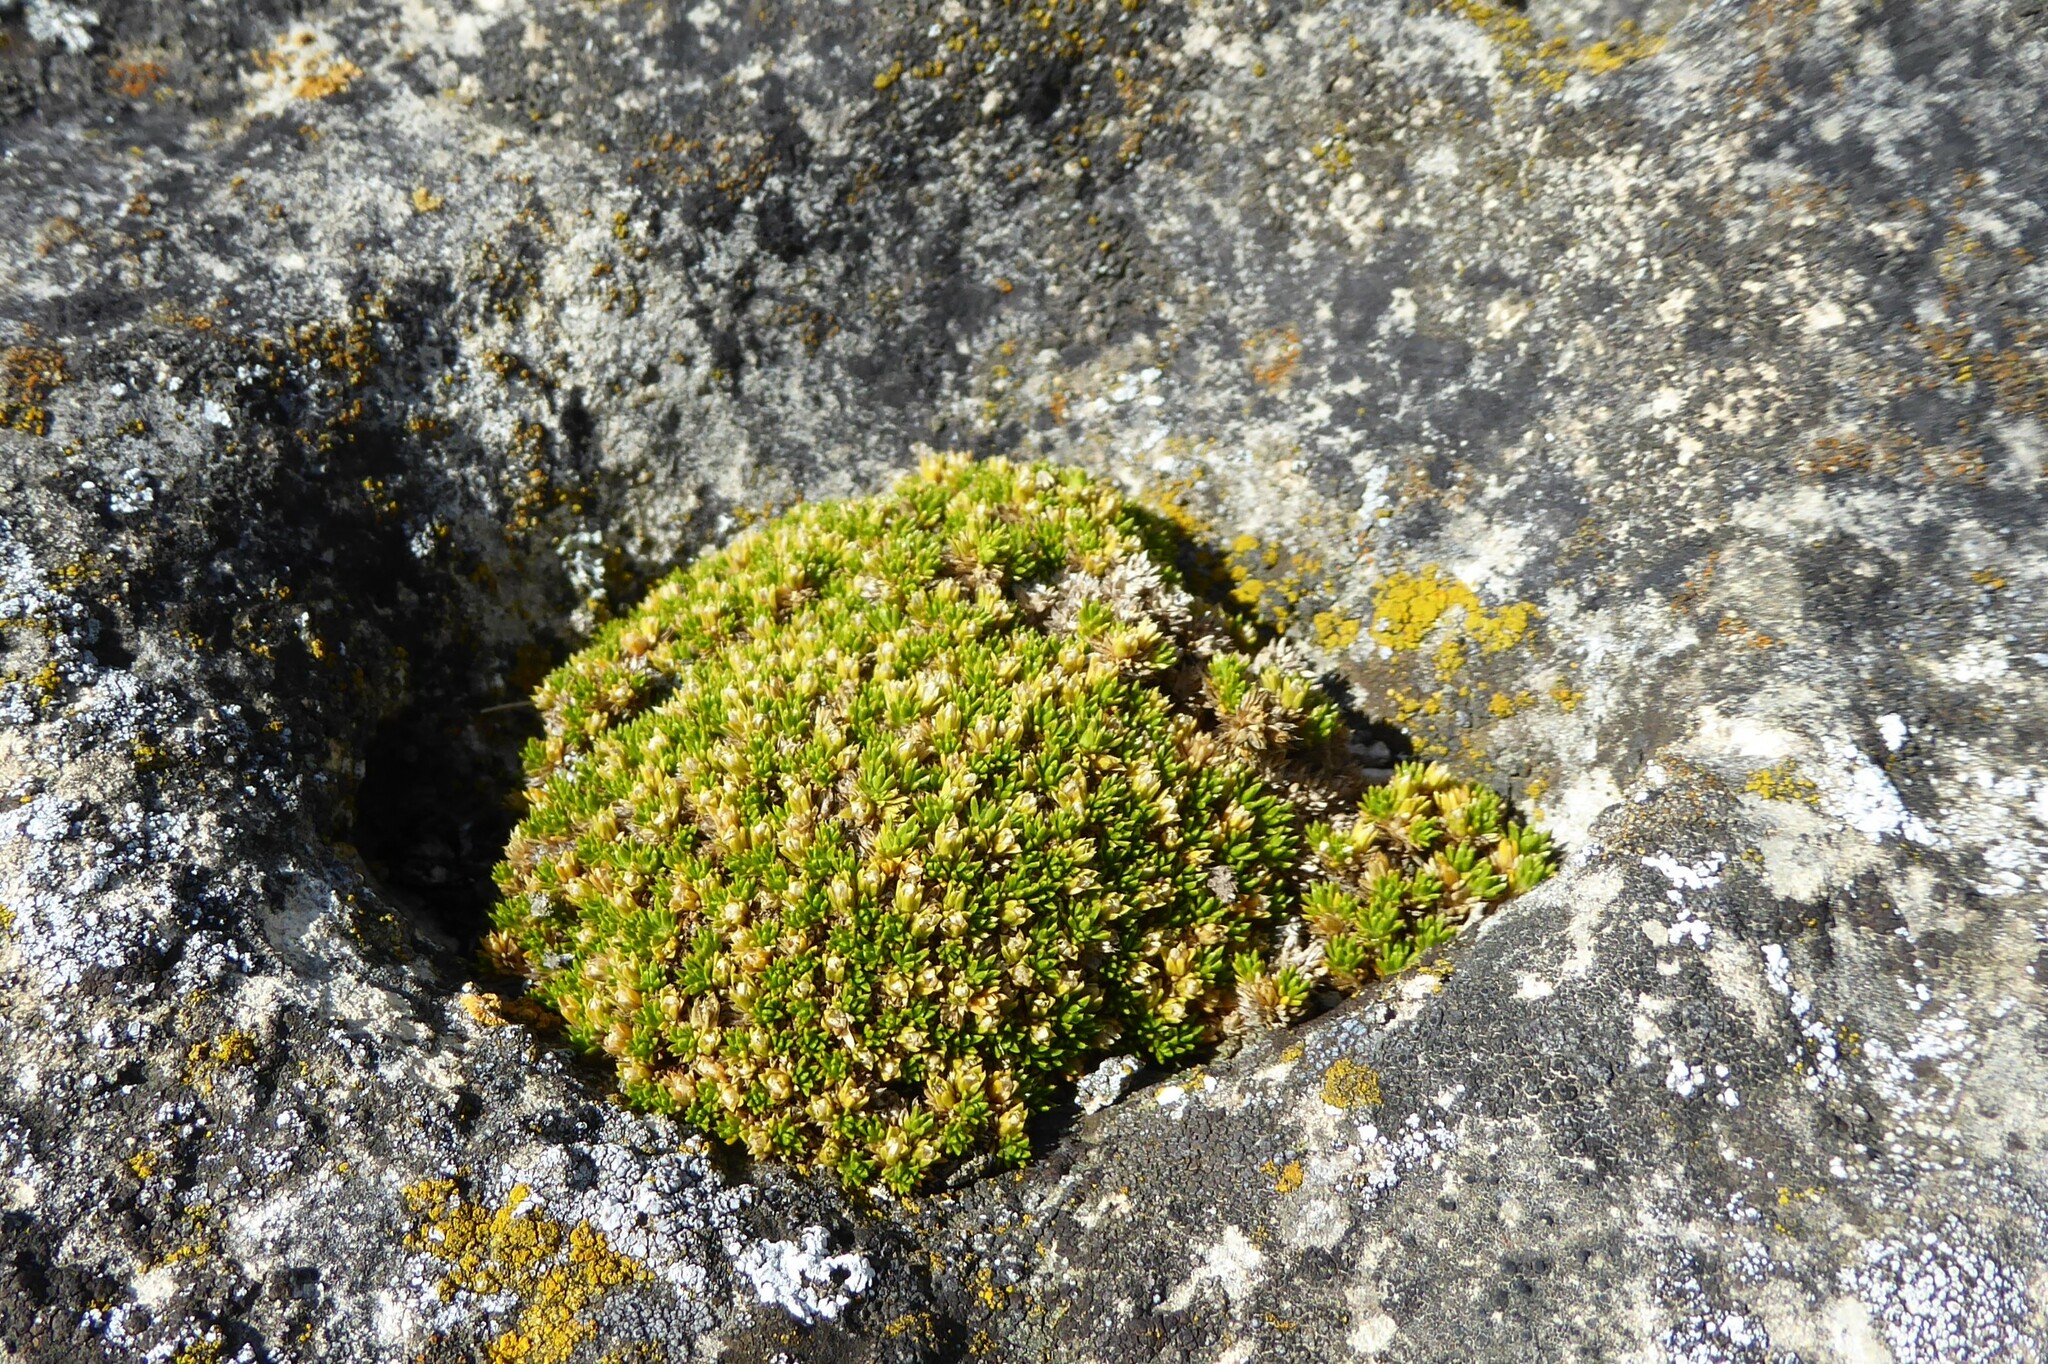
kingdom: Plantae
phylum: Tracheophyta
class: Magnoliopsida
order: Caryophyllales
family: Caryophyllaceae
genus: Colobanthus
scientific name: Colobanthus brevisepalus
